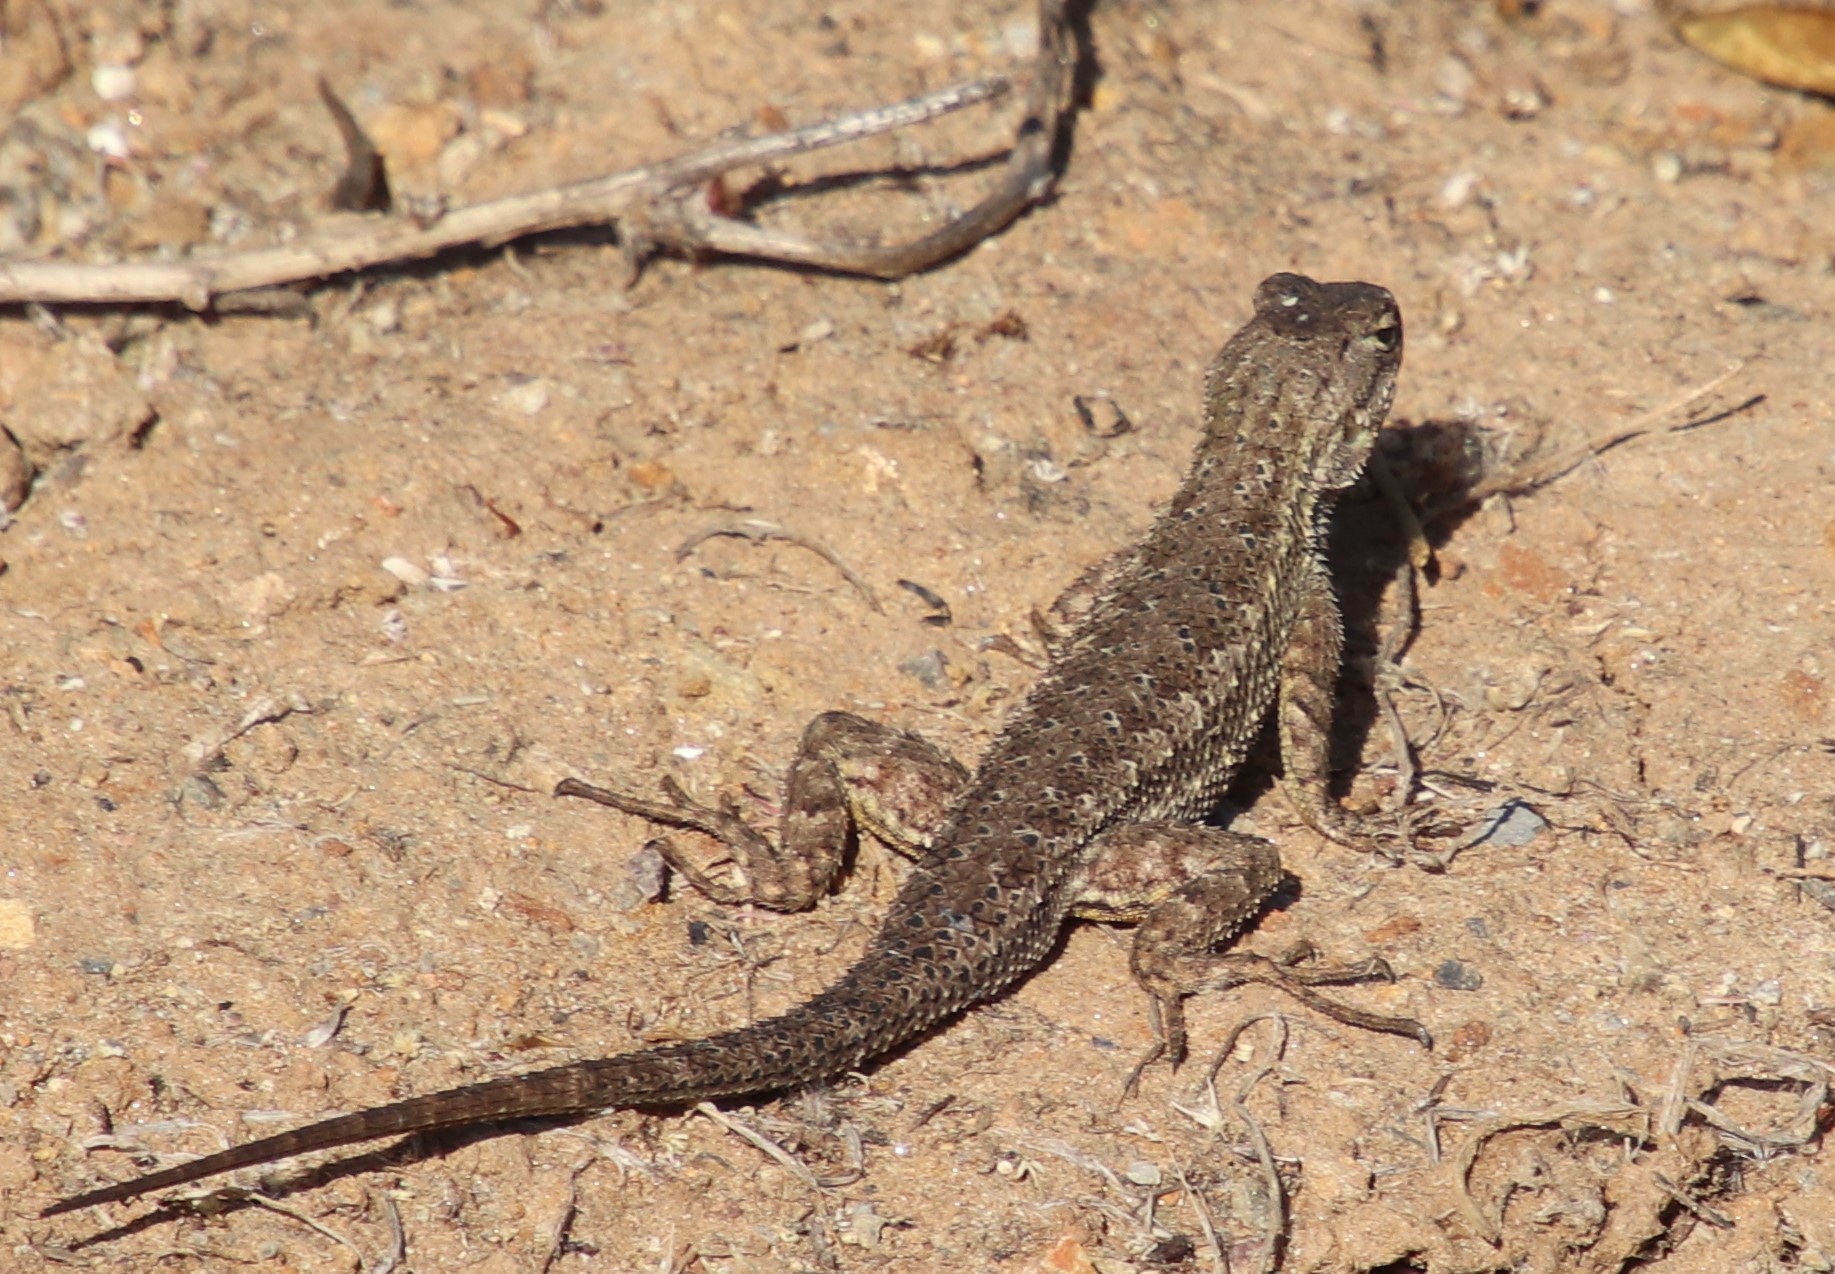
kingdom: Animalia
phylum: Chordata
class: Squamata
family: Phrynosomatidae
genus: Sceloporus
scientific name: Sceloporus occidentalis
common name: Western fence lizard
